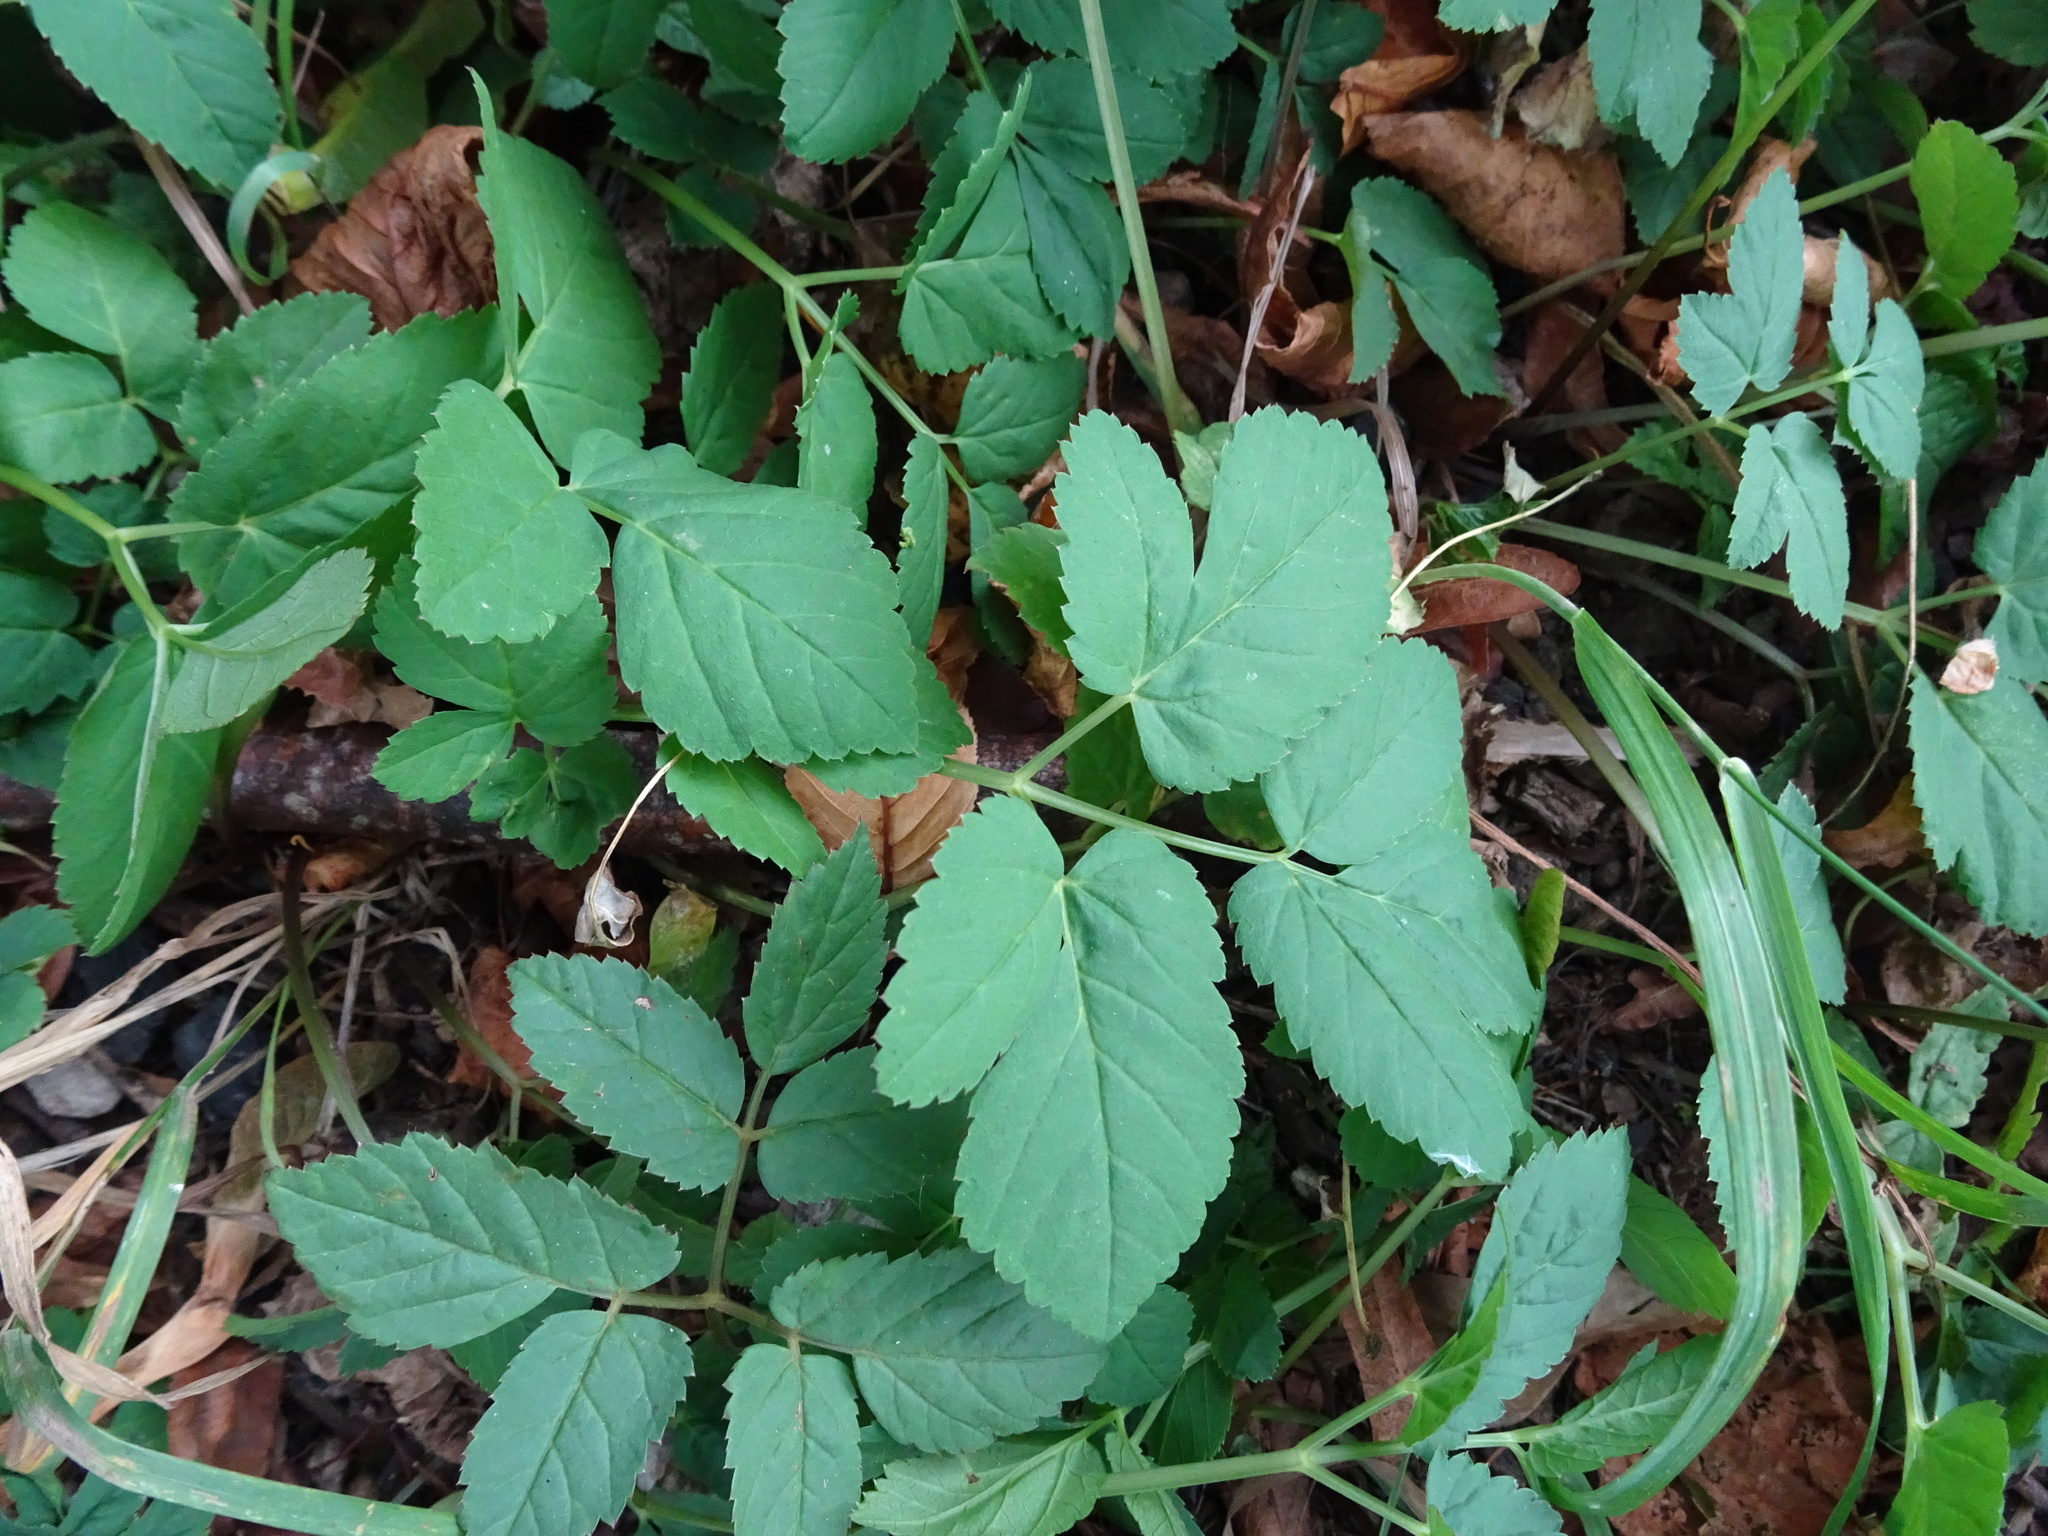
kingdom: Plantae
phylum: Tracheophyta
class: Magnoliopsida
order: Apiales
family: Apiaceae
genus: Aegopodium
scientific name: Aegopodium podagraria
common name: Ground-elder
